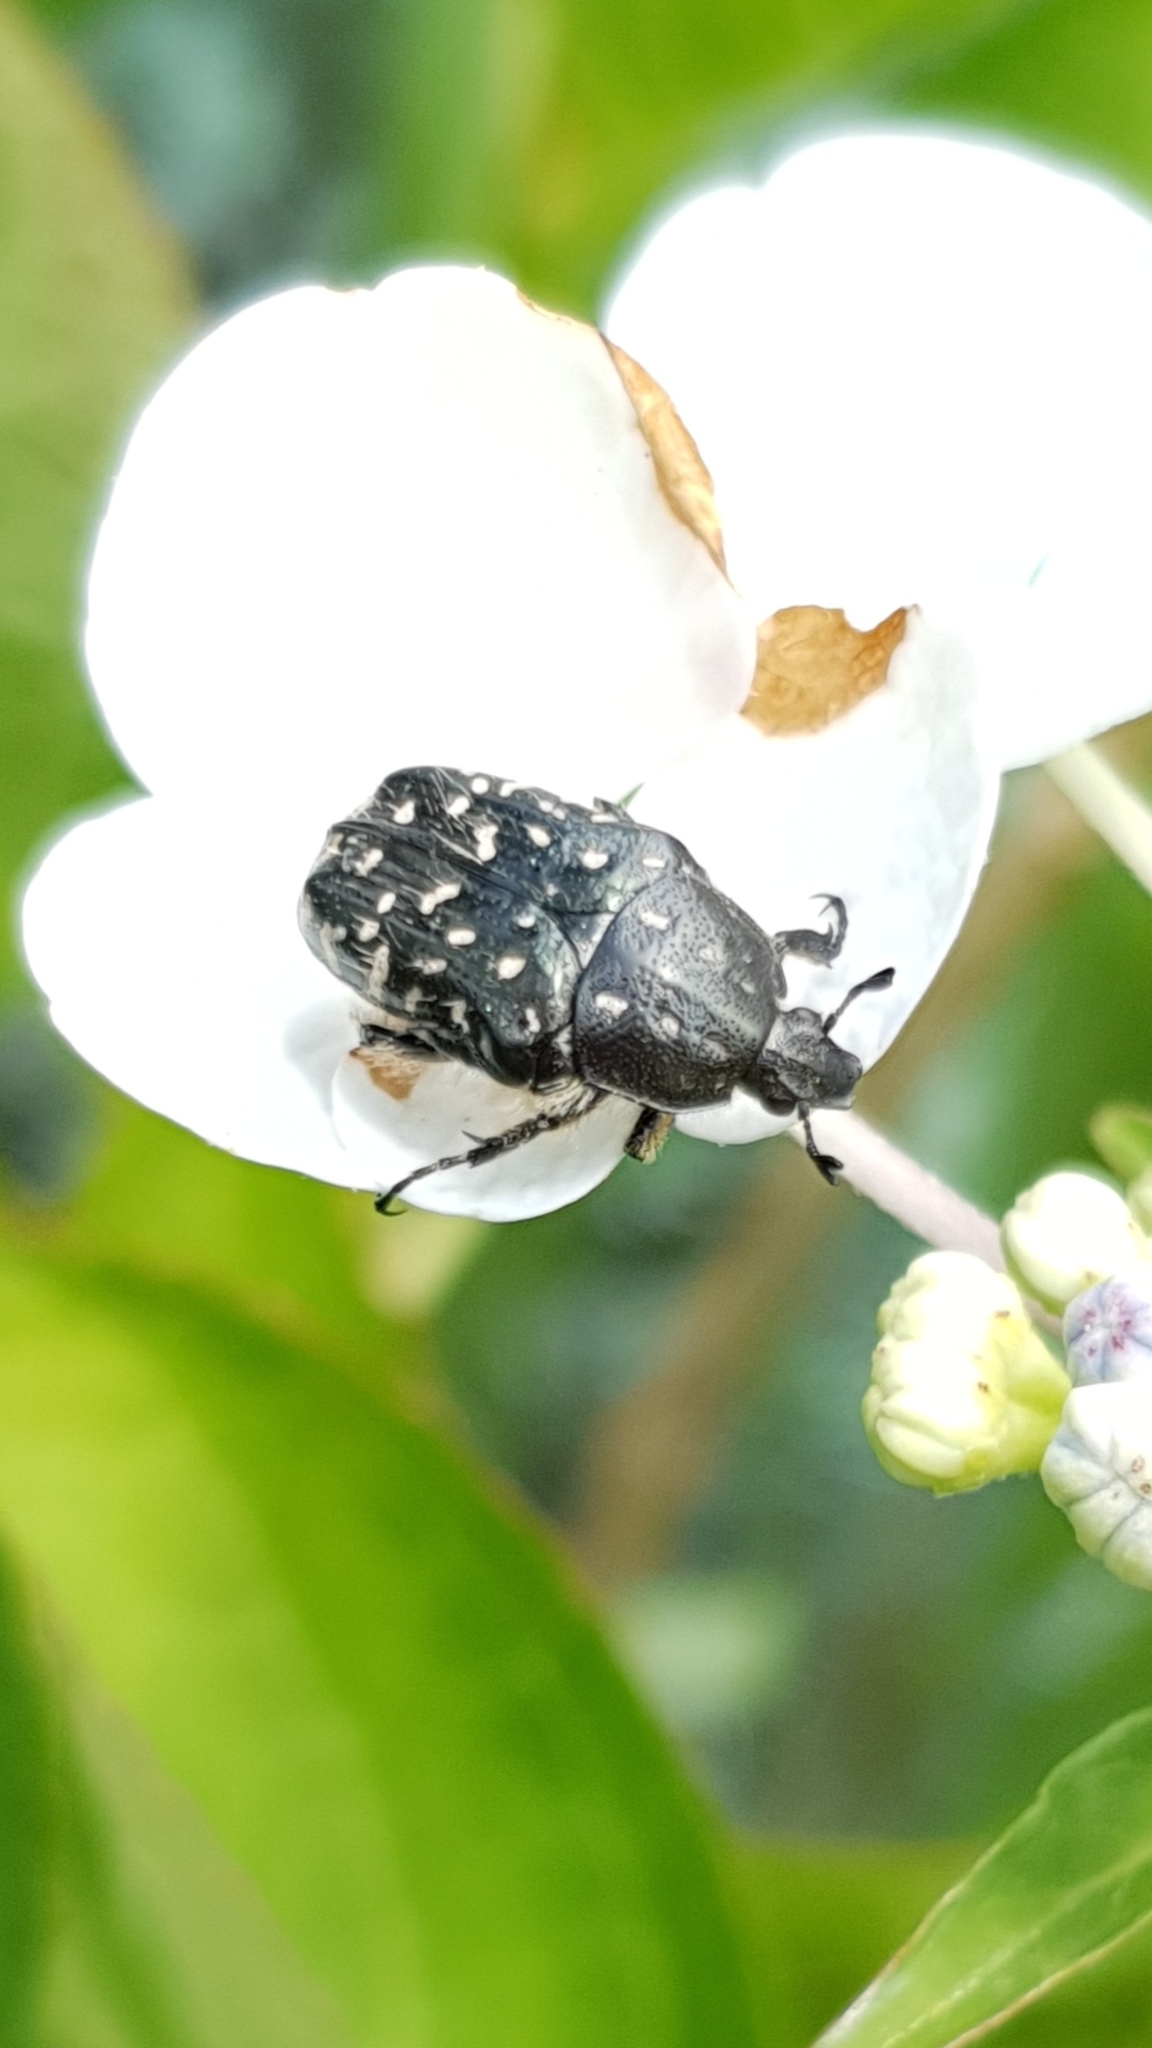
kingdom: Animalia
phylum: Arthropoda
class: Insecta
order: Coleoptera
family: Scarabaeidae
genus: Oxythyrea
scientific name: Oxythyrea funesta
